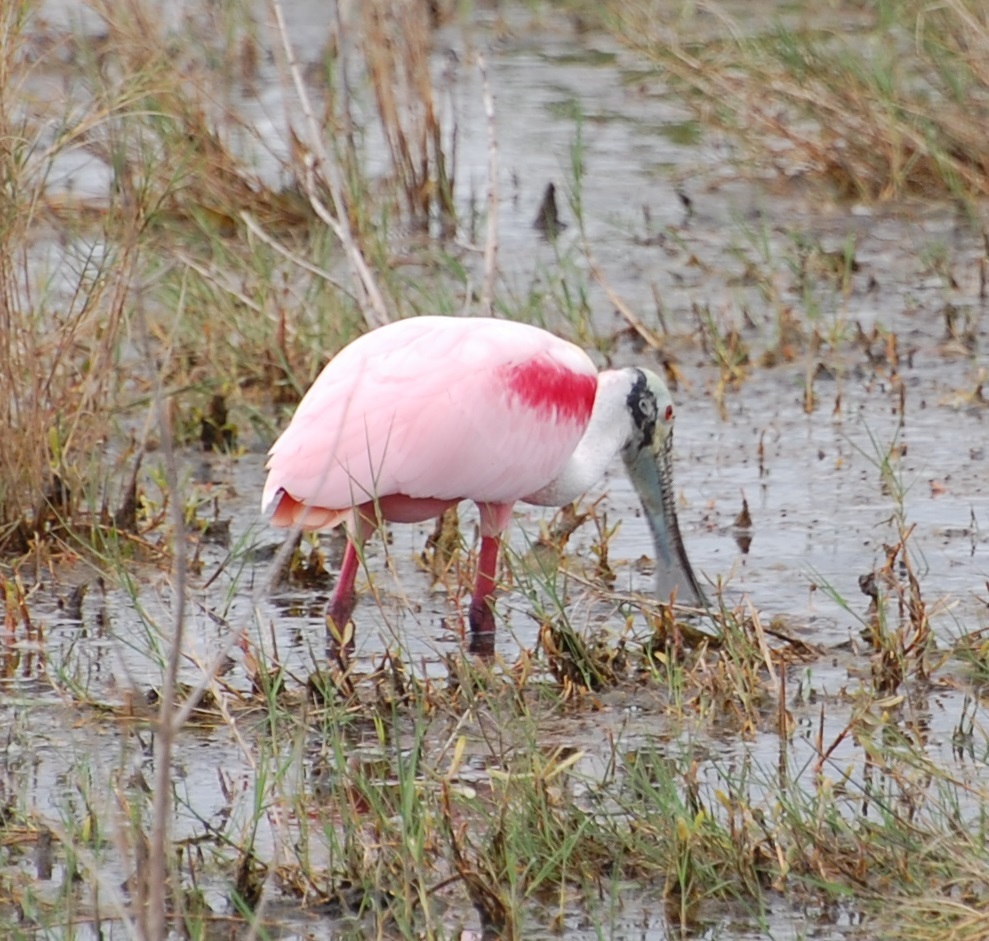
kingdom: Animalia
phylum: Chordata
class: Aves
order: Pelecaniformes
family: Threskiornithidae
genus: Platalea
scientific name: Platalea ajaja
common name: Roseate spoonbill
